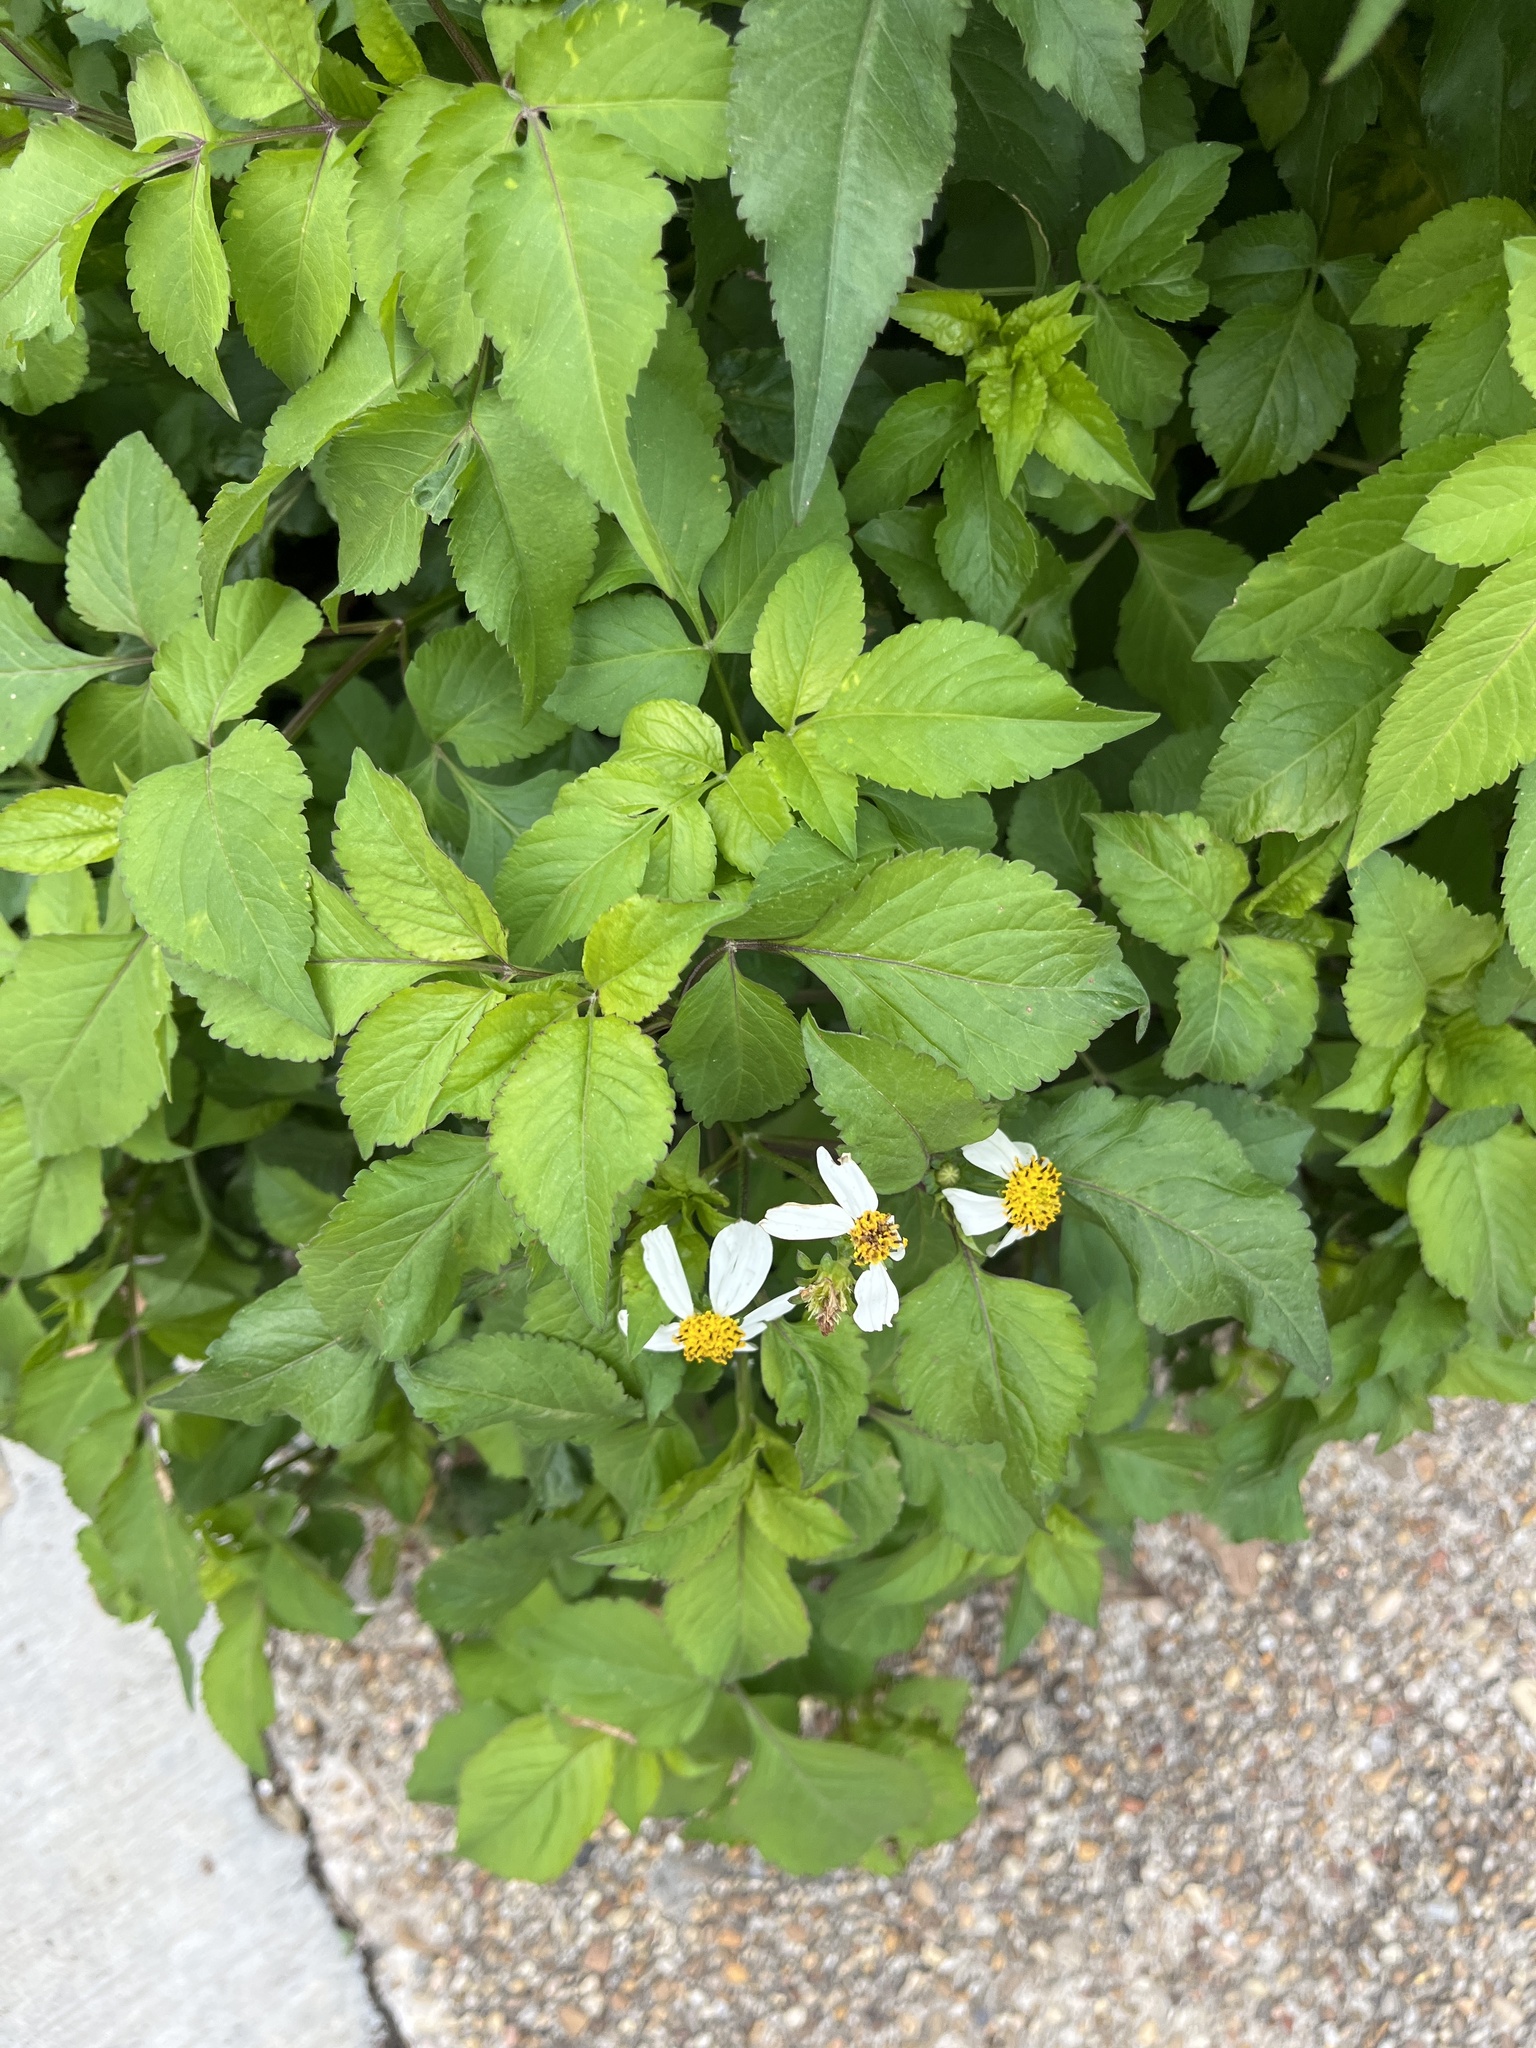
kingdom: Plantae
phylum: Tracheophyta
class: Magnoliopsida
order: Asterales
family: Asteraceae
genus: Bidens
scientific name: Bidens alba
